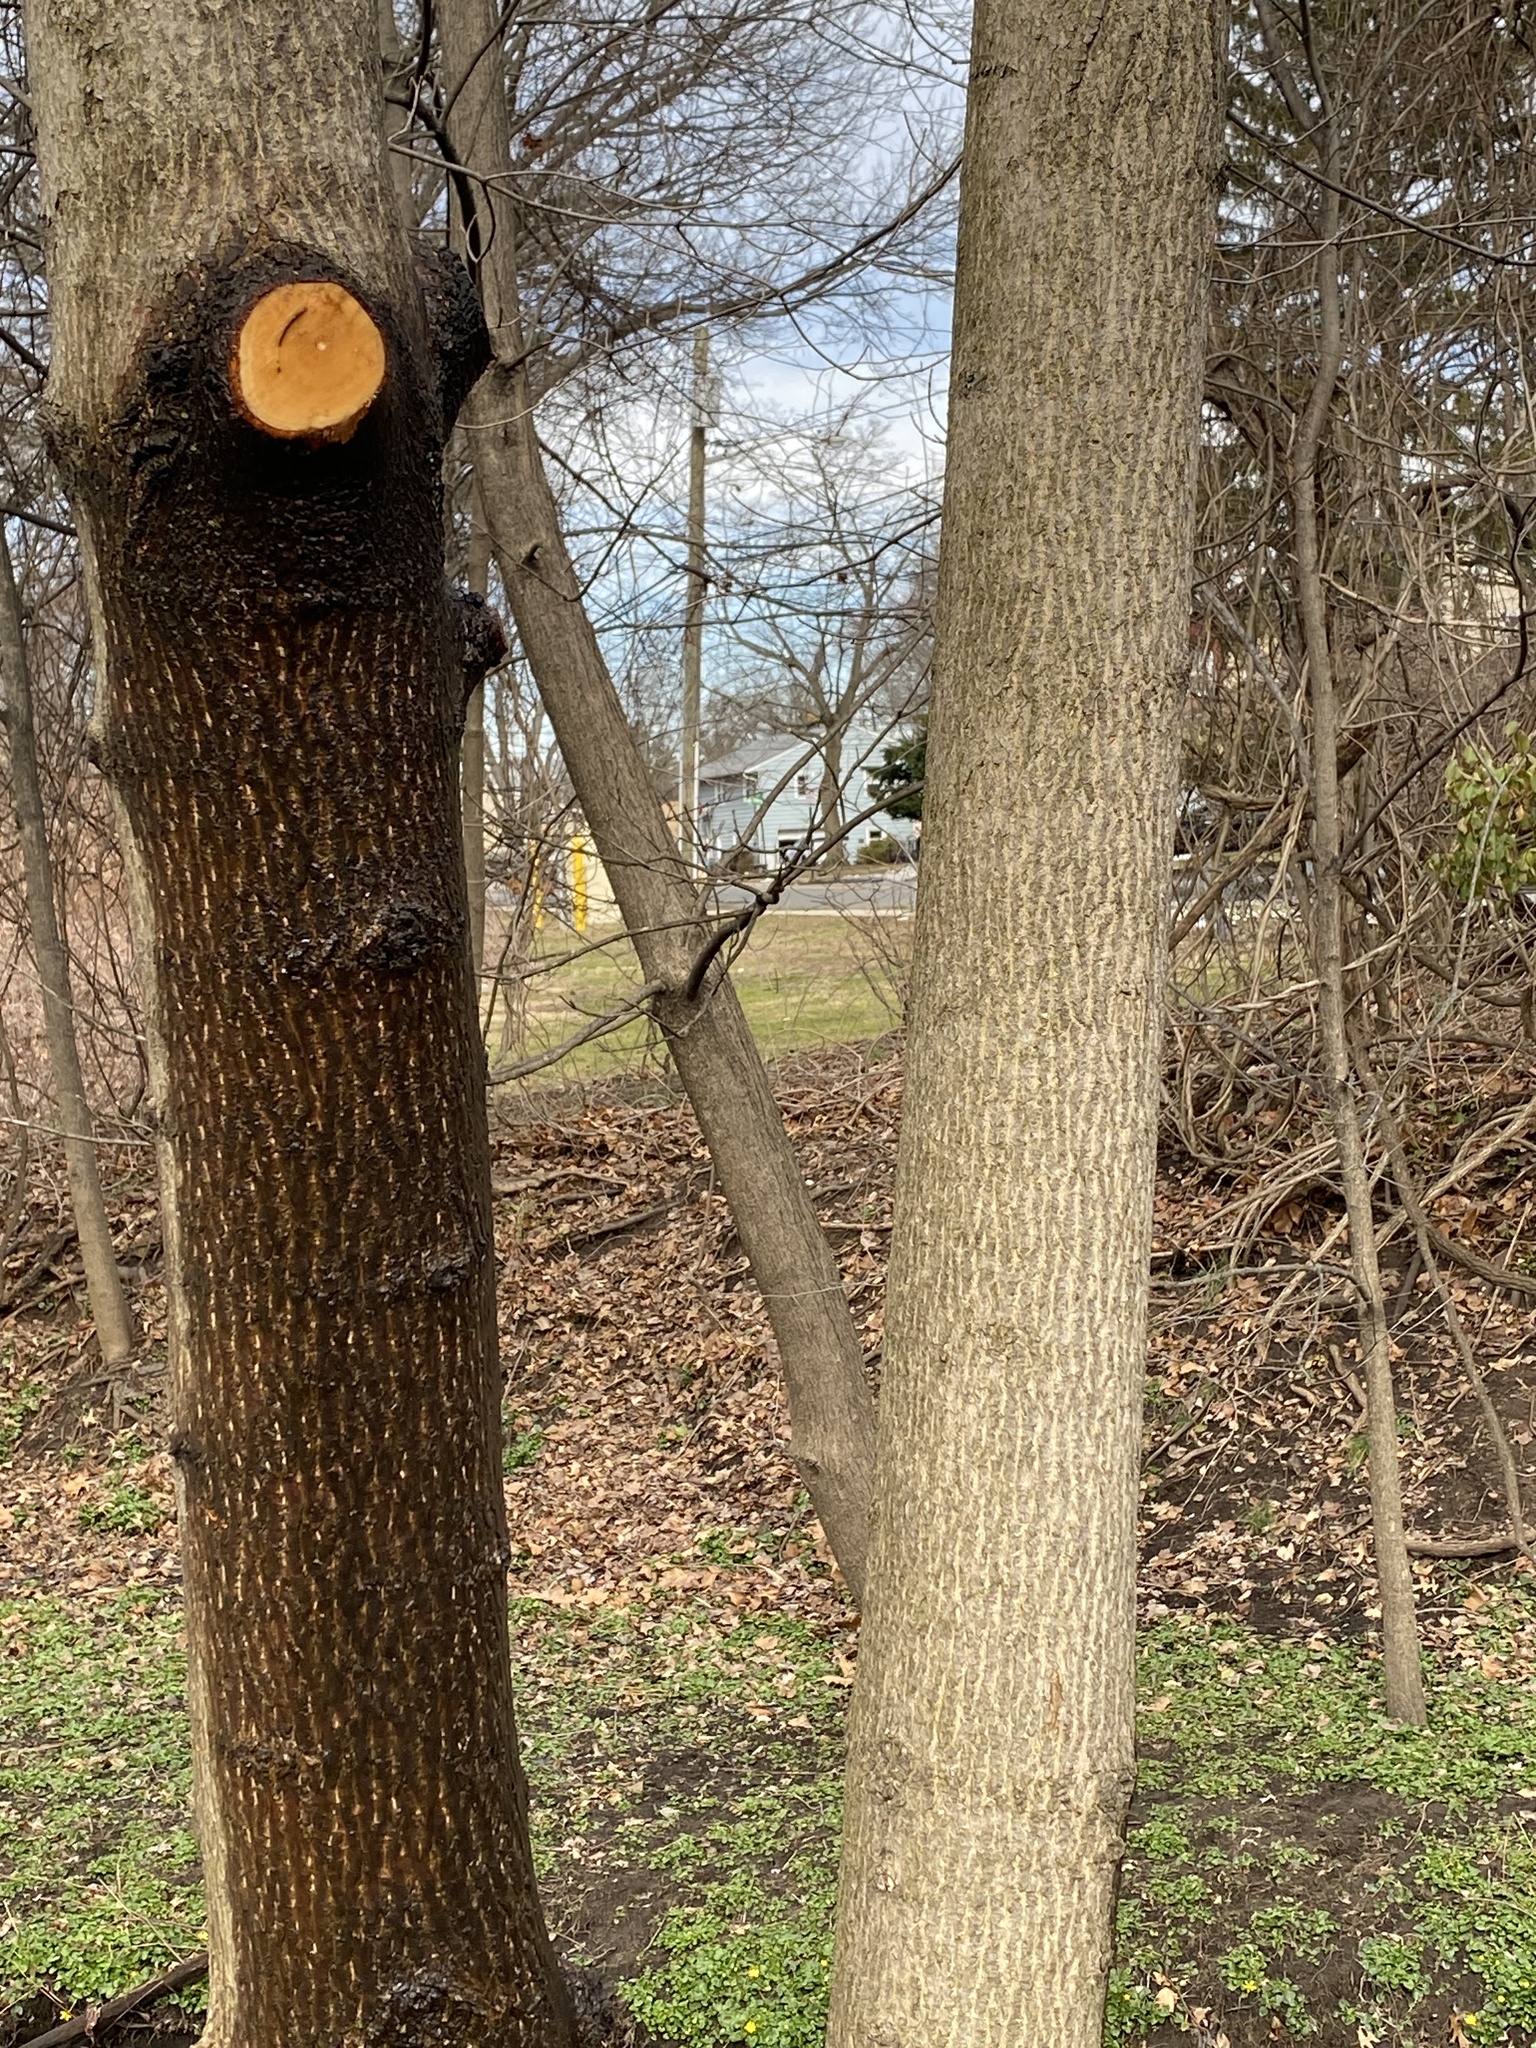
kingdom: Plantae
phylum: Tracheophyta
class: Magnoliopsida
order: Sapindales
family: Sapindaceae
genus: Acer
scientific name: Acer platanoides
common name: Norway maple
